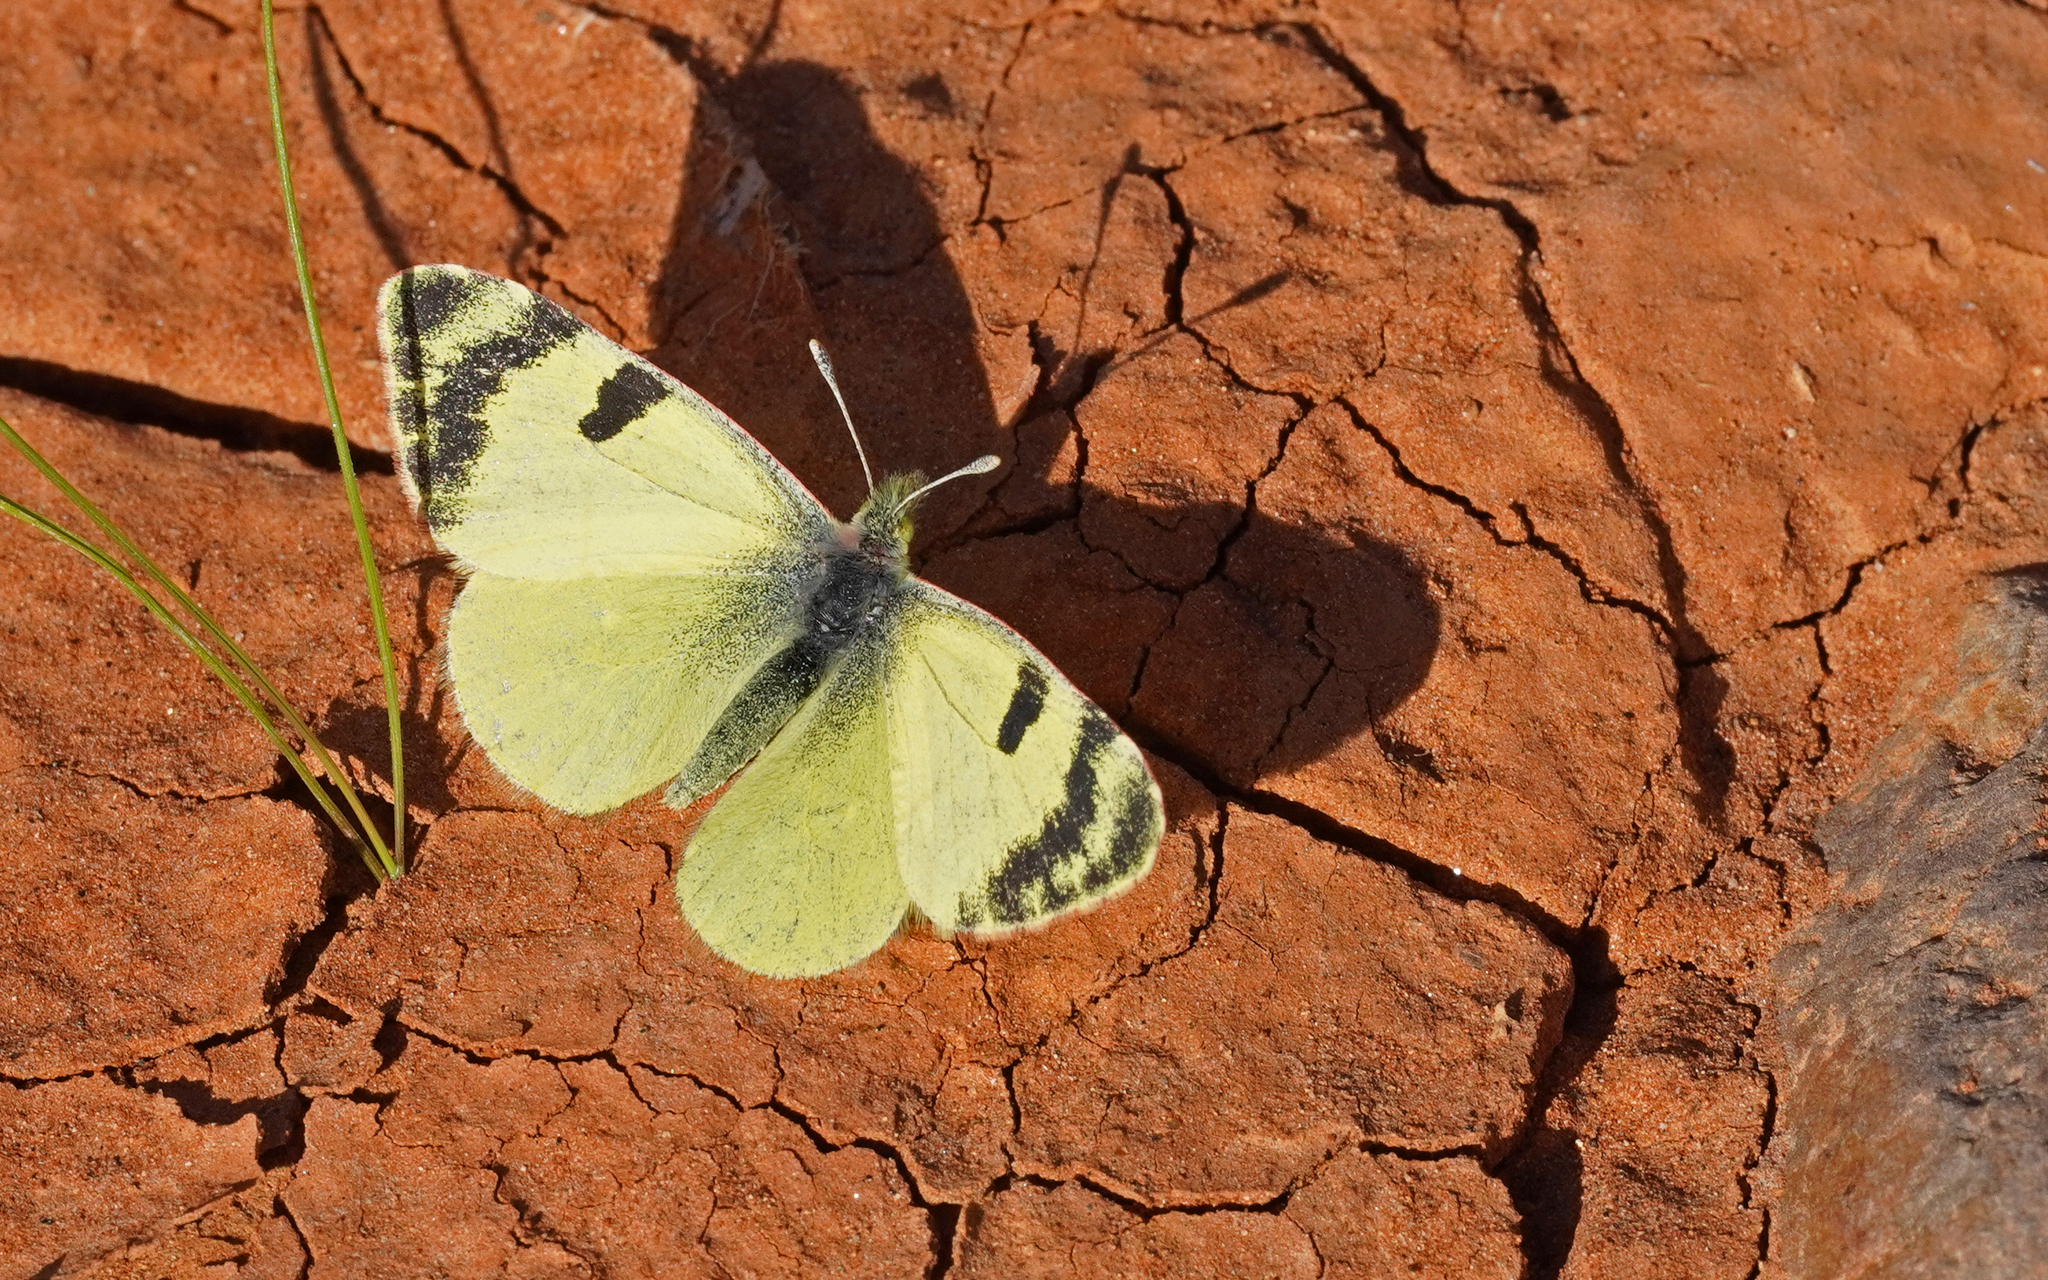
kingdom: Animalia
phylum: Arthropoda
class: Insecta
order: Lepidoptera
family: Pieridae
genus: Elphinstonia
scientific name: Elphinstonia charlonia
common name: Greenish black-tip
